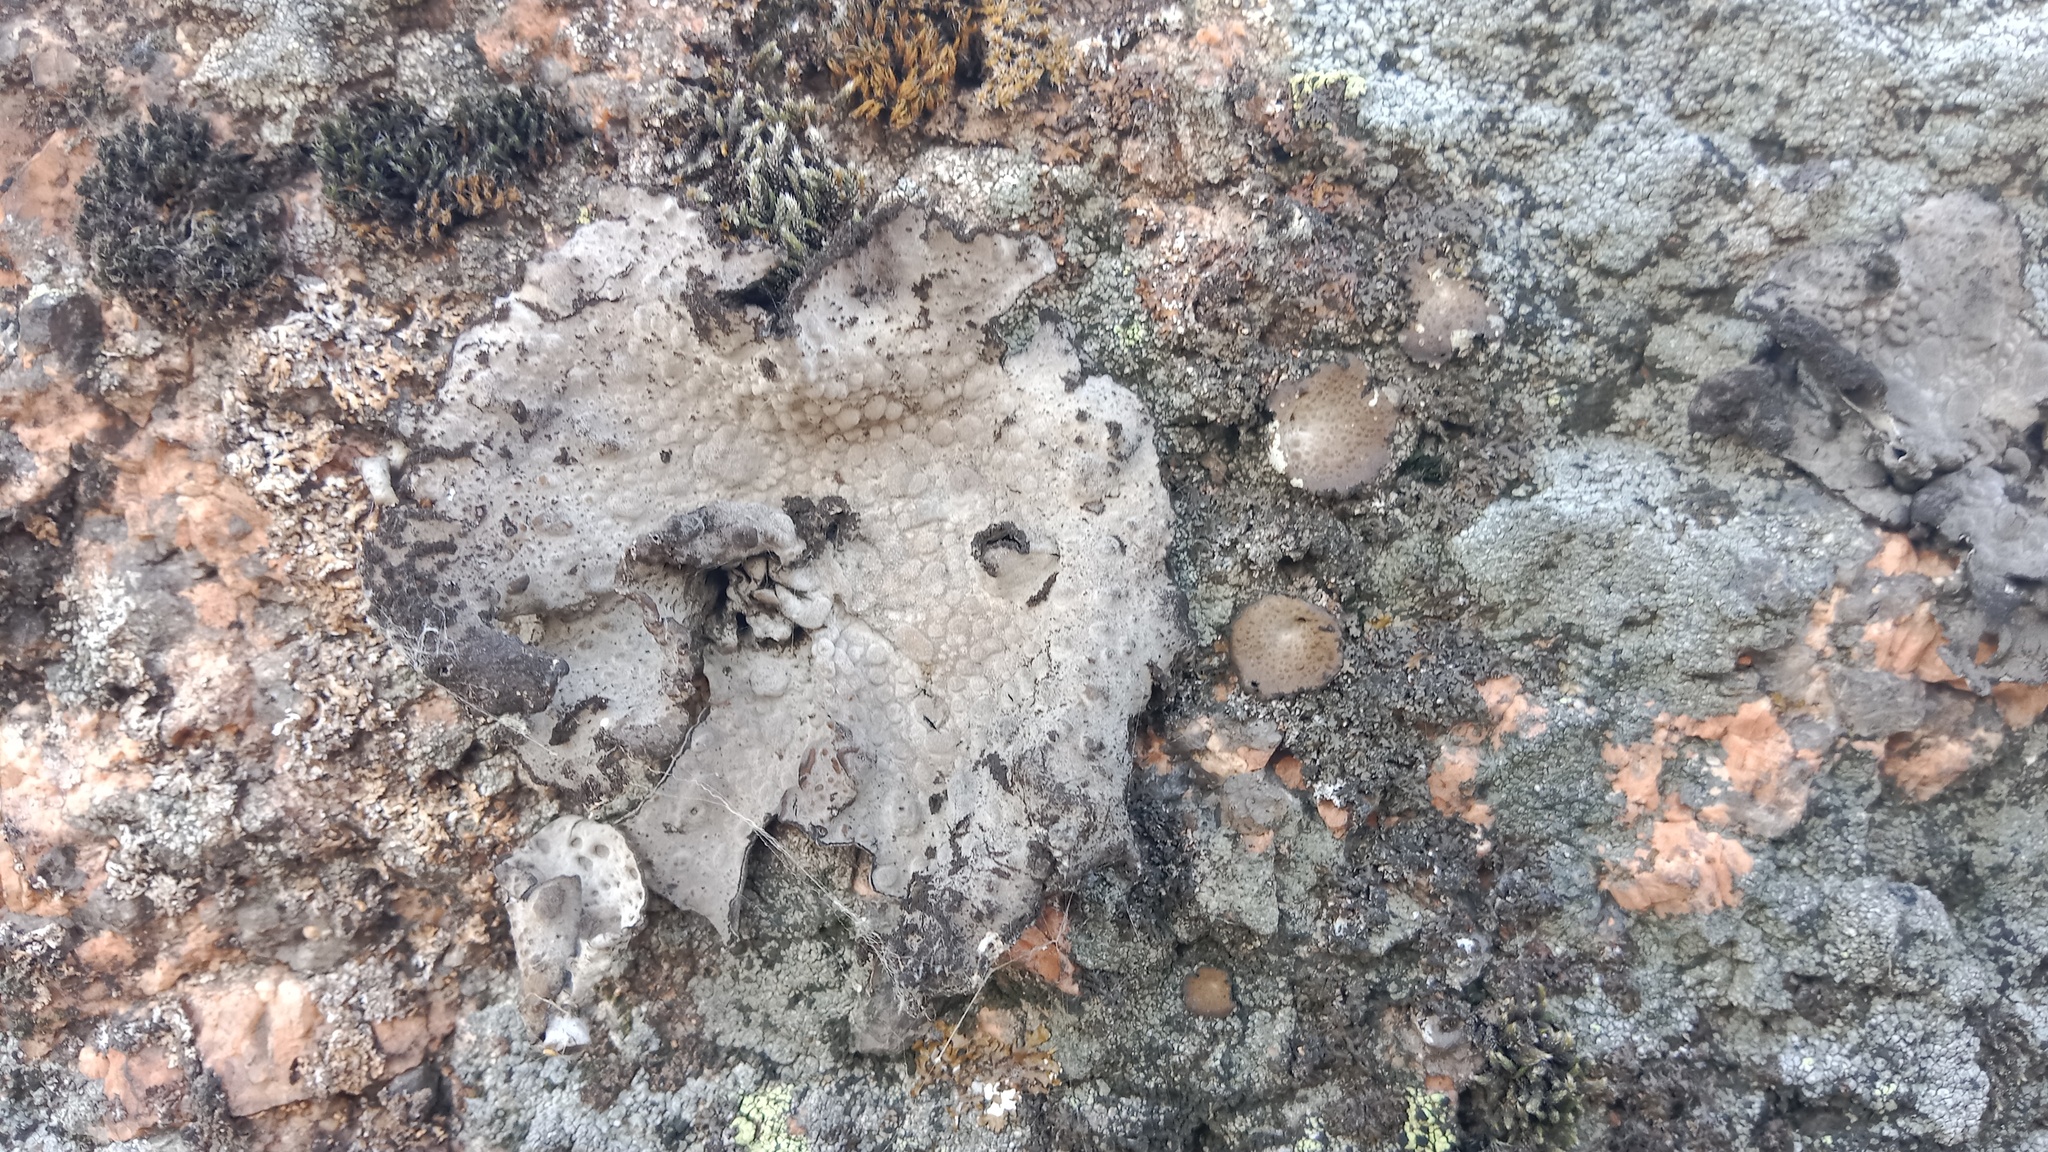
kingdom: Fungi
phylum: Ascomycota
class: Lecanoromycetes
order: Umbilicariales
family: Umbilicariaceae
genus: Lasallia
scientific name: Lasallia pustulata
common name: Blistered toadskin lichen
